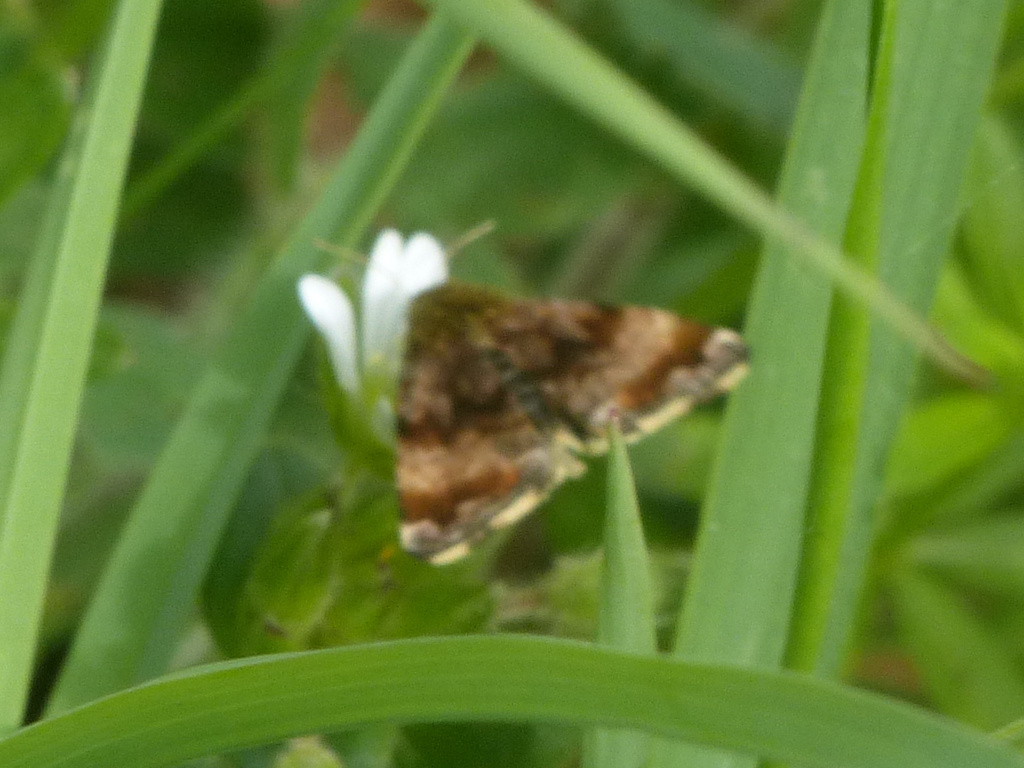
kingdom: Animalia
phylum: Arthropoda
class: Insecta
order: Lepidoptera
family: Noctuidae
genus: Panemeria
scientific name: Panemeria tenebrata
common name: Small yellow underwing
